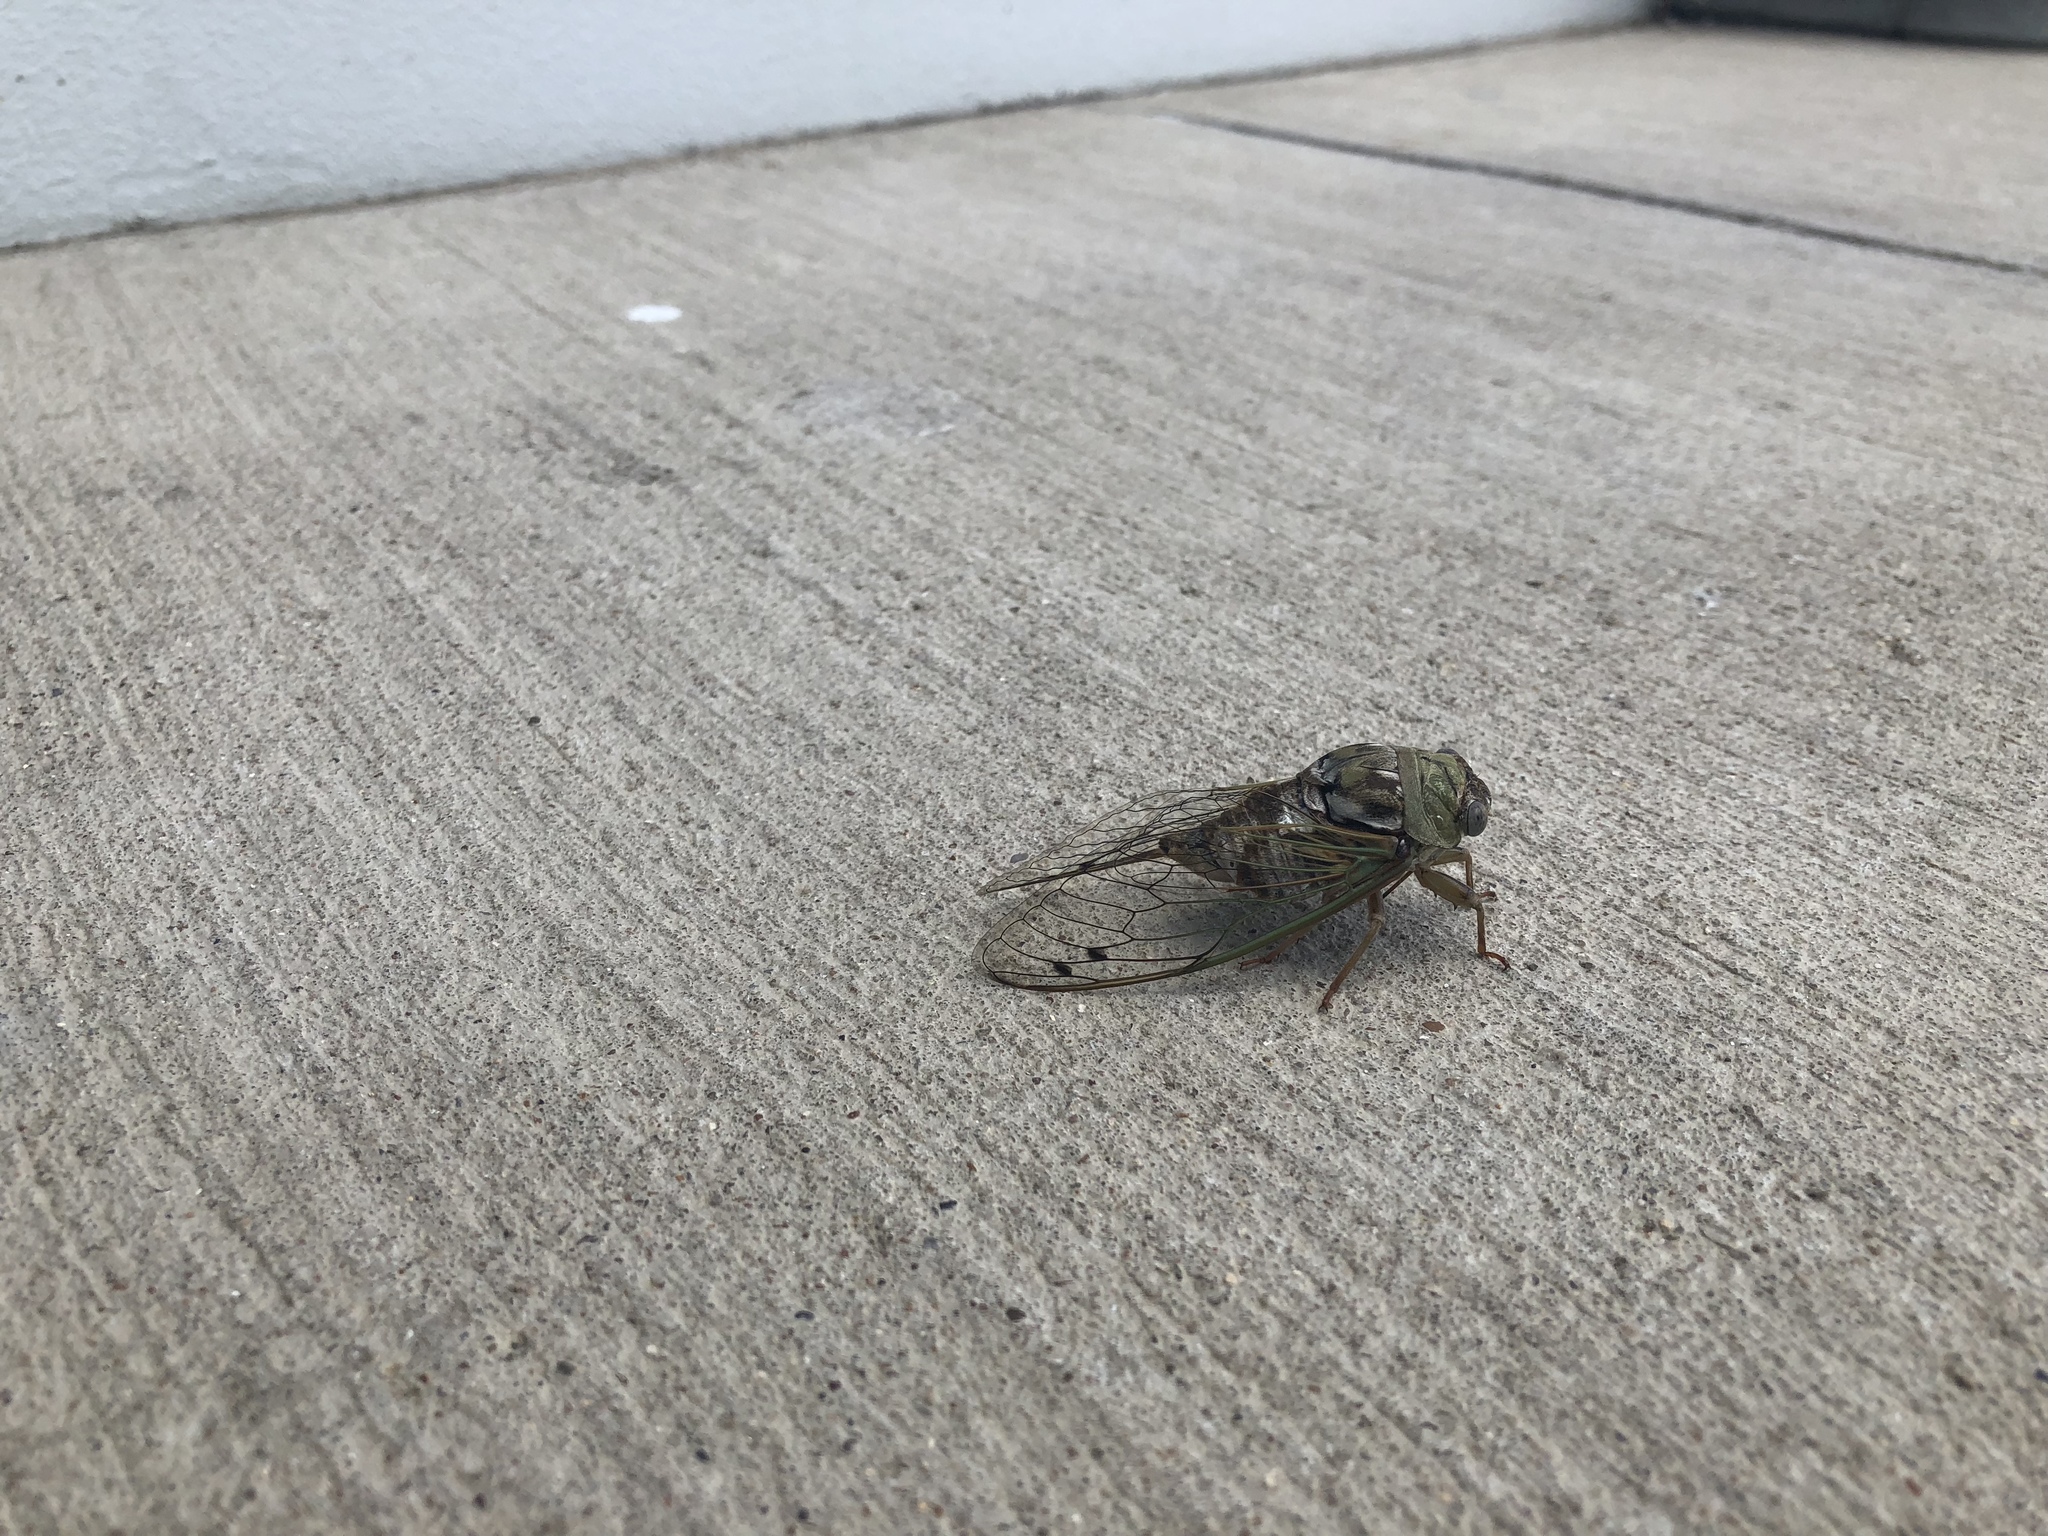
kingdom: Animalia
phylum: Arthropoda
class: Insecta
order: Hemiptera
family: Cicadidae
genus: Megatibicen
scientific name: Megatibicen resh
